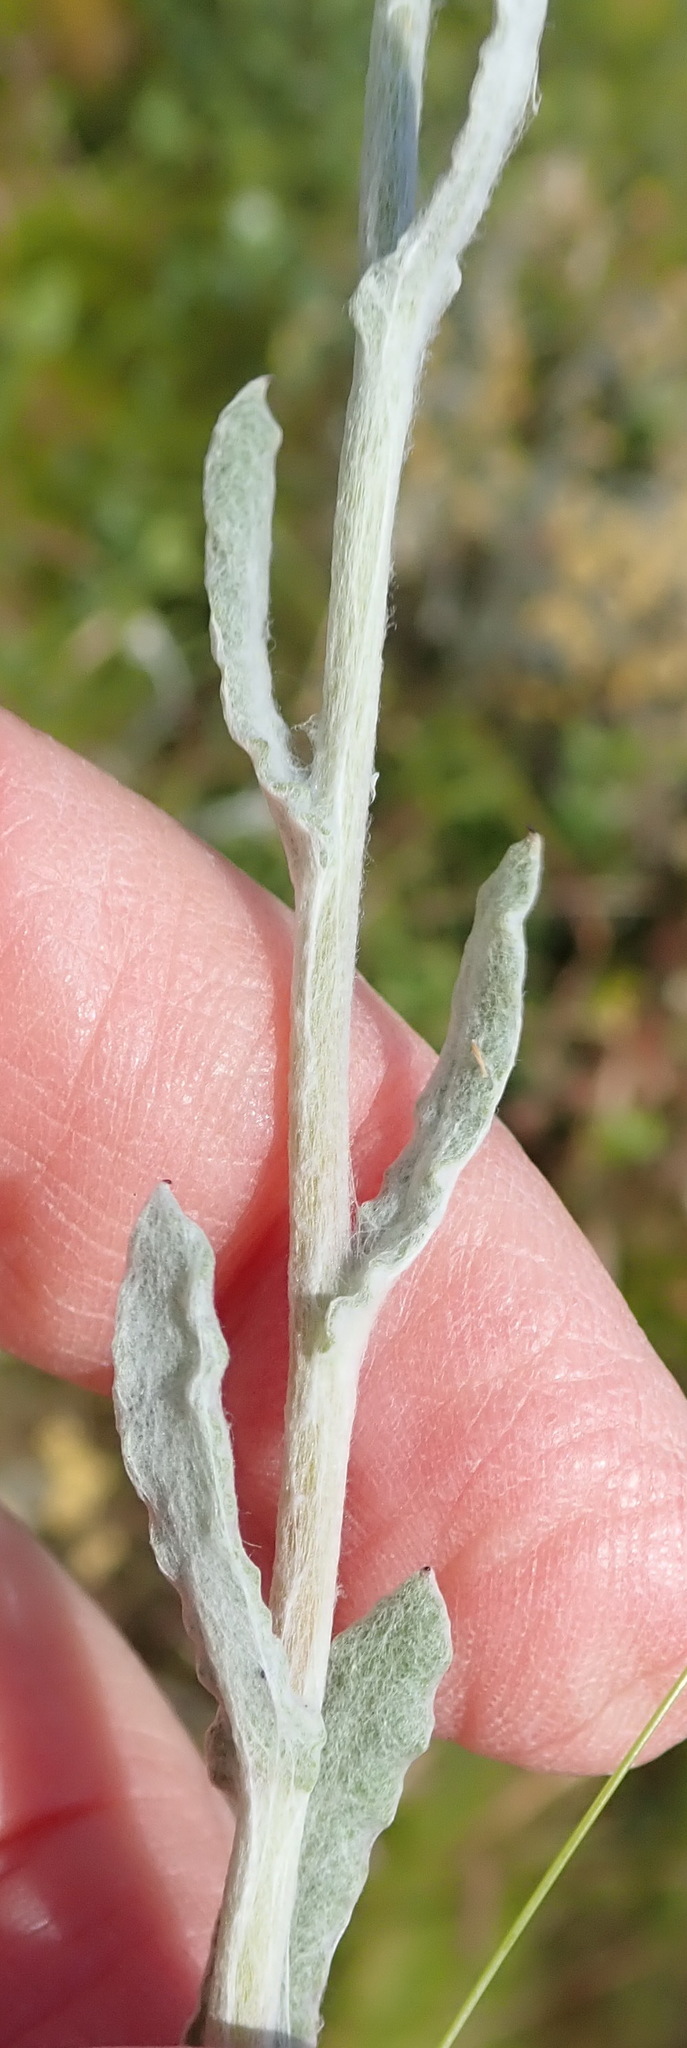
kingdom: Plantae
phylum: Tracheophyta
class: Magnoliopsida
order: Asterales
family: Asteraceae
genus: Helichrysum
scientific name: Helichrysum dasyanthum
